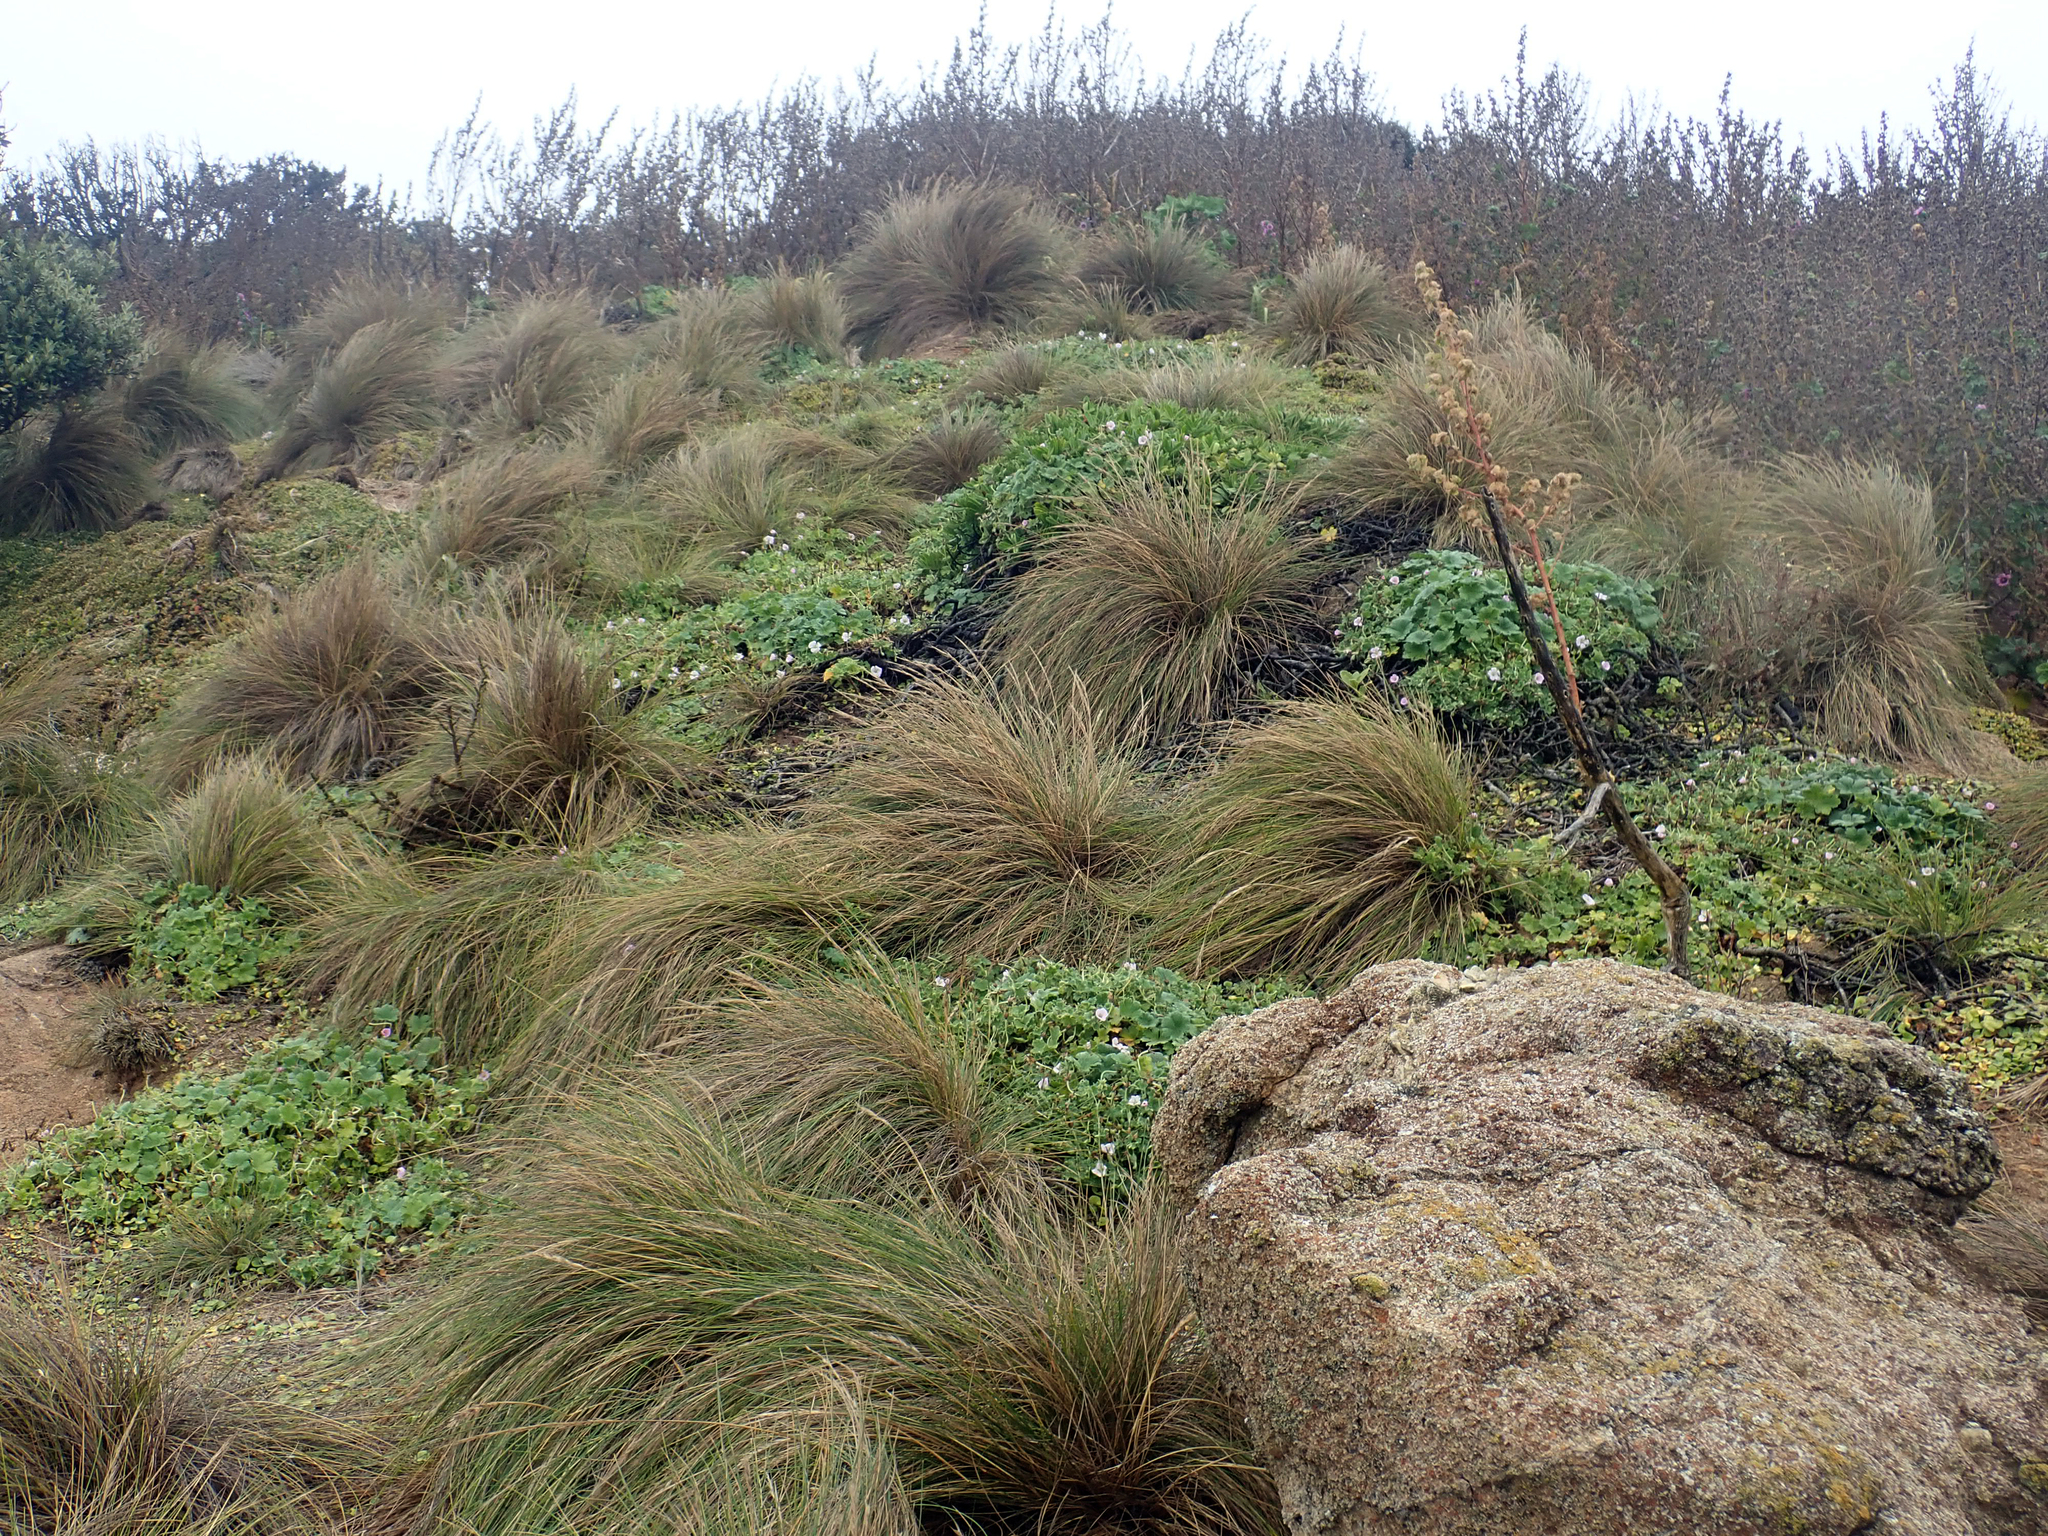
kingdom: Plantae
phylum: Tracheophyta
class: Liliopsida
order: Poales
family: Poaceae
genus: Festuca
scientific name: Festuca coxii
